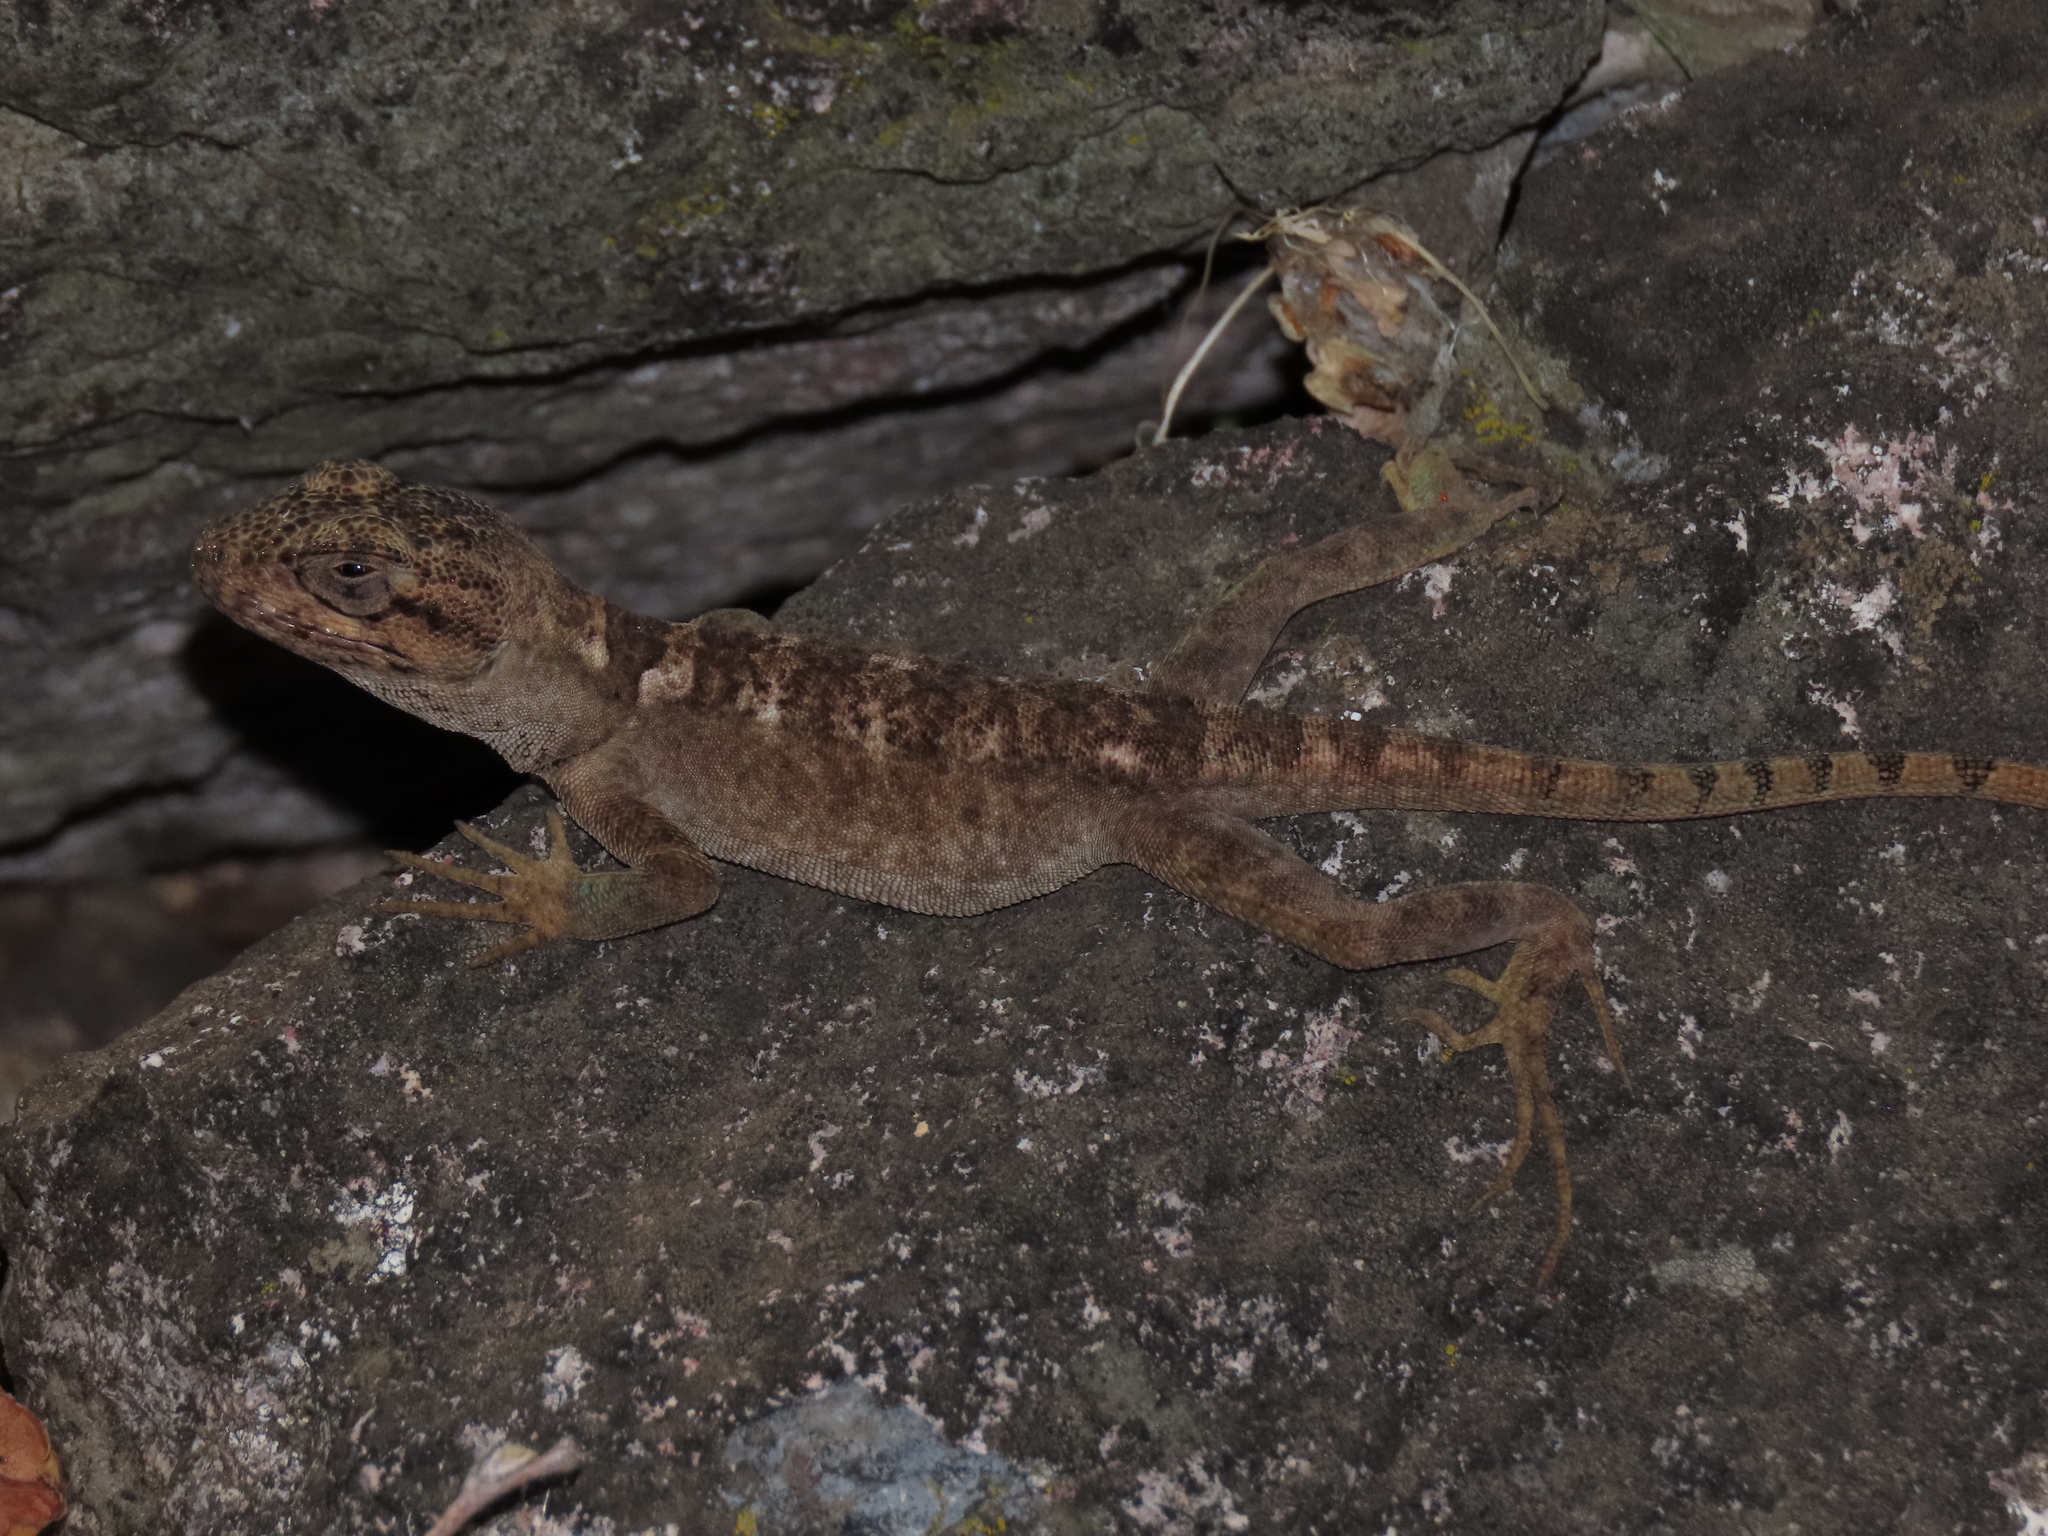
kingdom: Animalia
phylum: Chordata
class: Squamata
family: Leiosauridae
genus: Pristidactylus
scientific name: Pristidactylus valeriae
